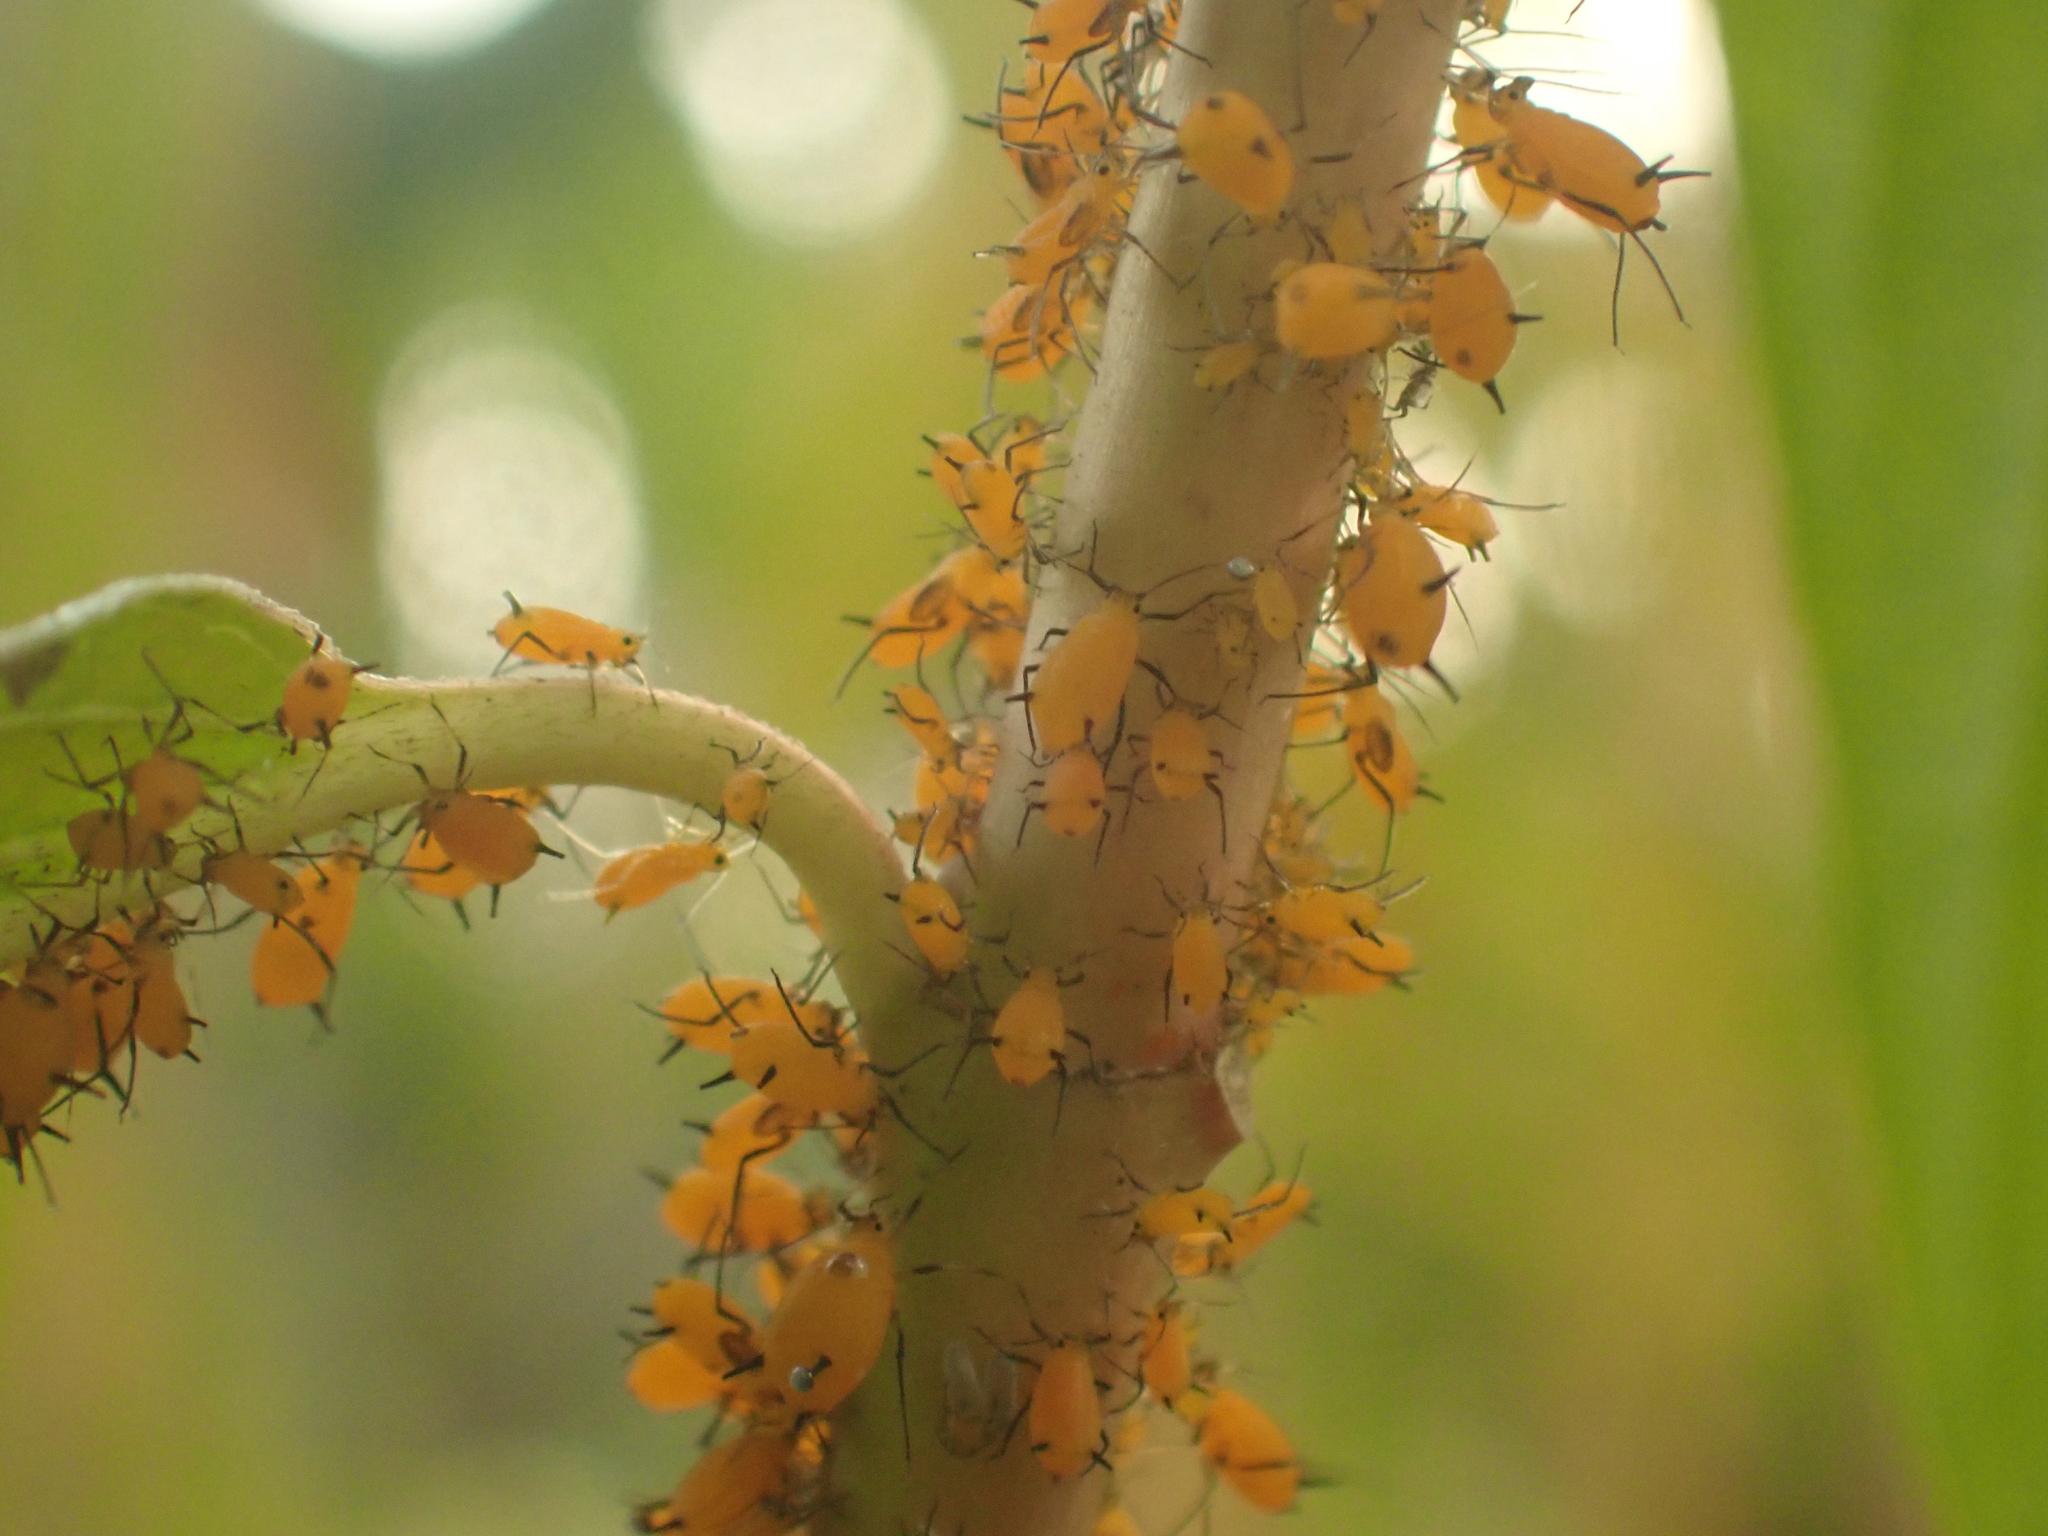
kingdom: Animalia
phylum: Arthropoda
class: Insecta
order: Hemiptera
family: Aphididae
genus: Aphis
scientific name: Aphis nerii
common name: Oleander aphid
